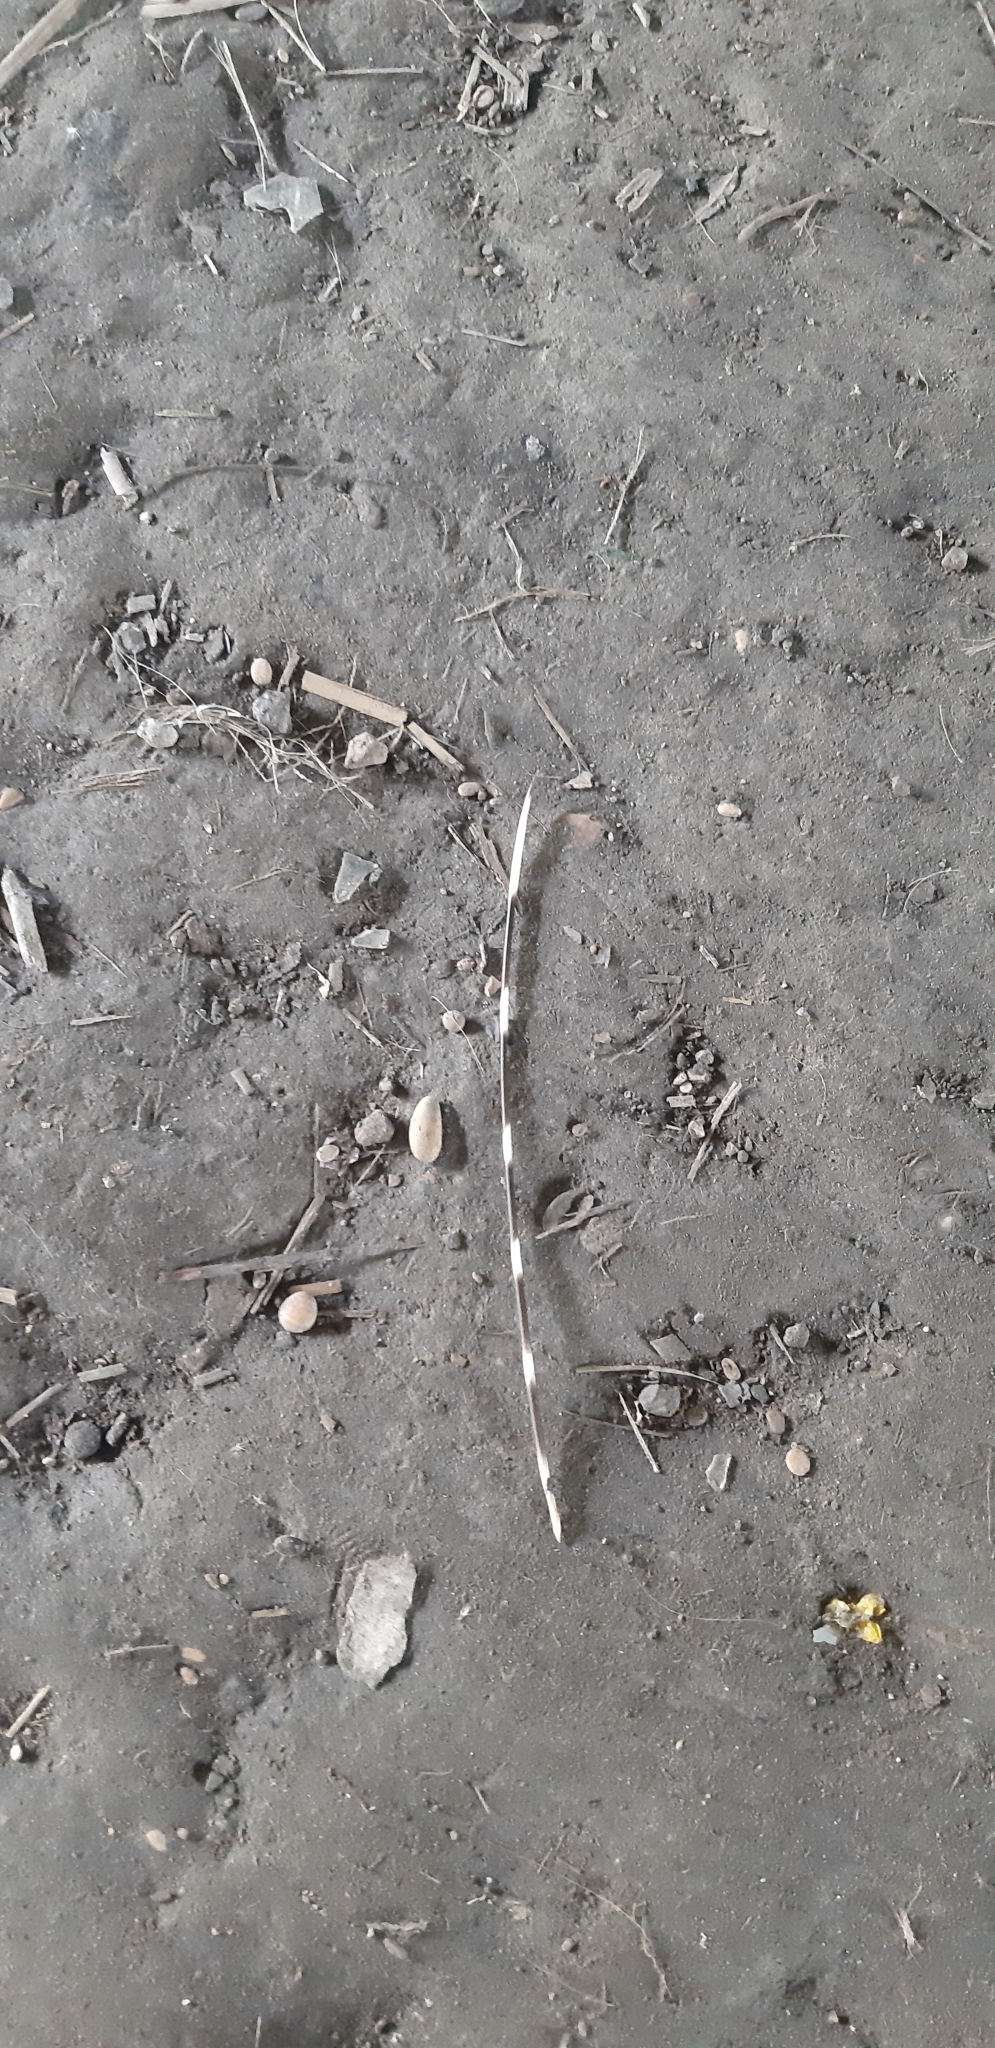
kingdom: Animalia
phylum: Chordata
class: Mammalia
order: Rodentia
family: Hystricidae
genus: Hystrix
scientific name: Hystrix cristata
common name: Crested porcupine
